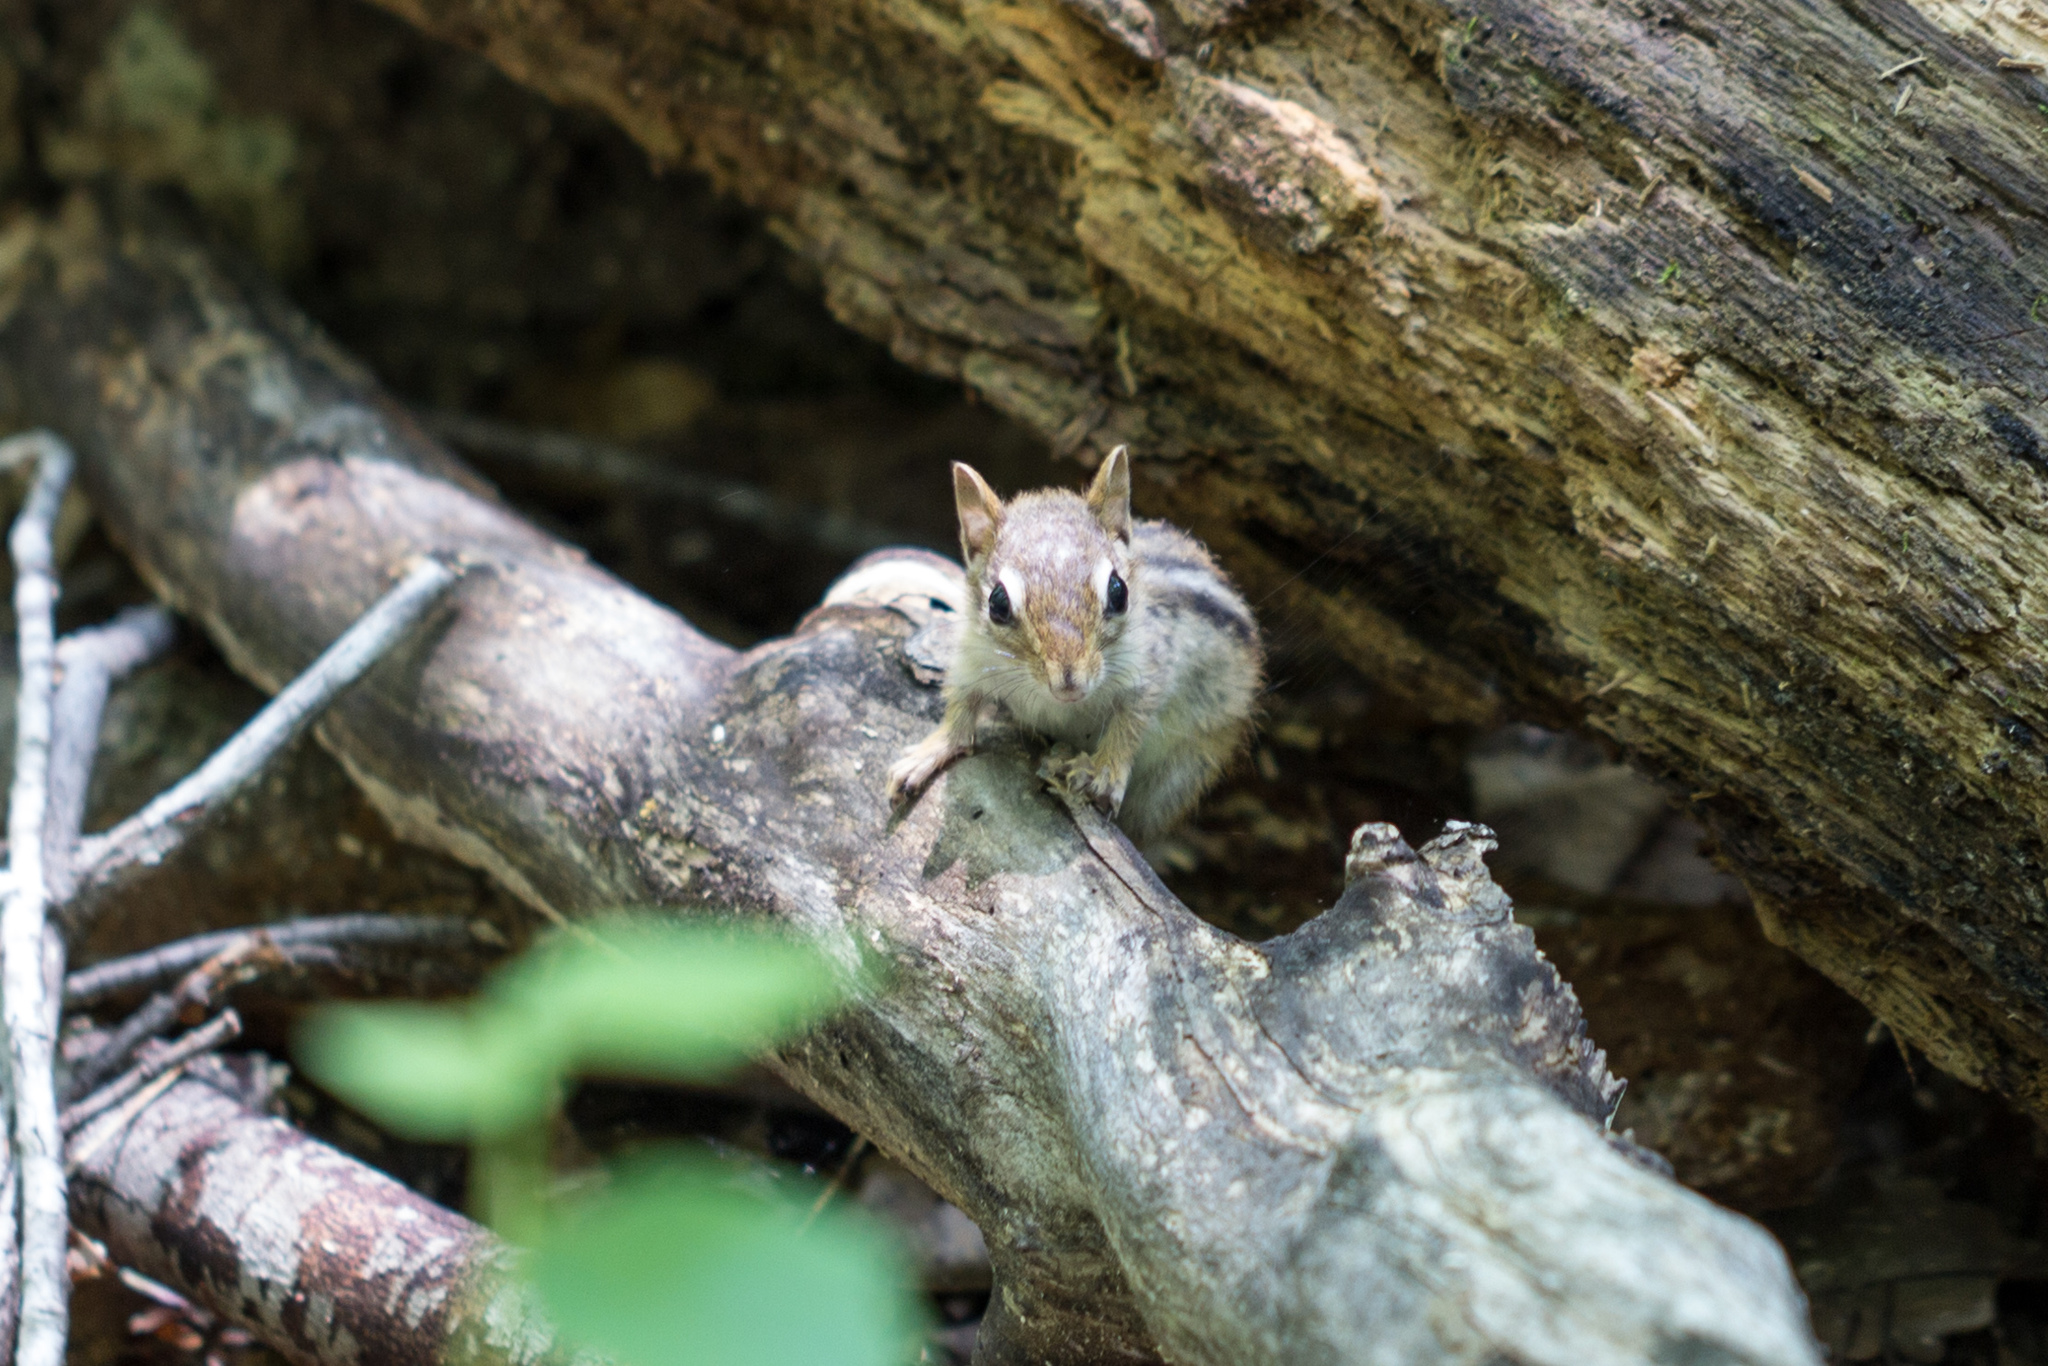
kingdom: Animalia
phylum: Chordata
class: Mammalia
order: Rodentia
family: Sciuridae
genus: Tamias
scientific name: Tamias striatus
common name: Eastern chipmunk
